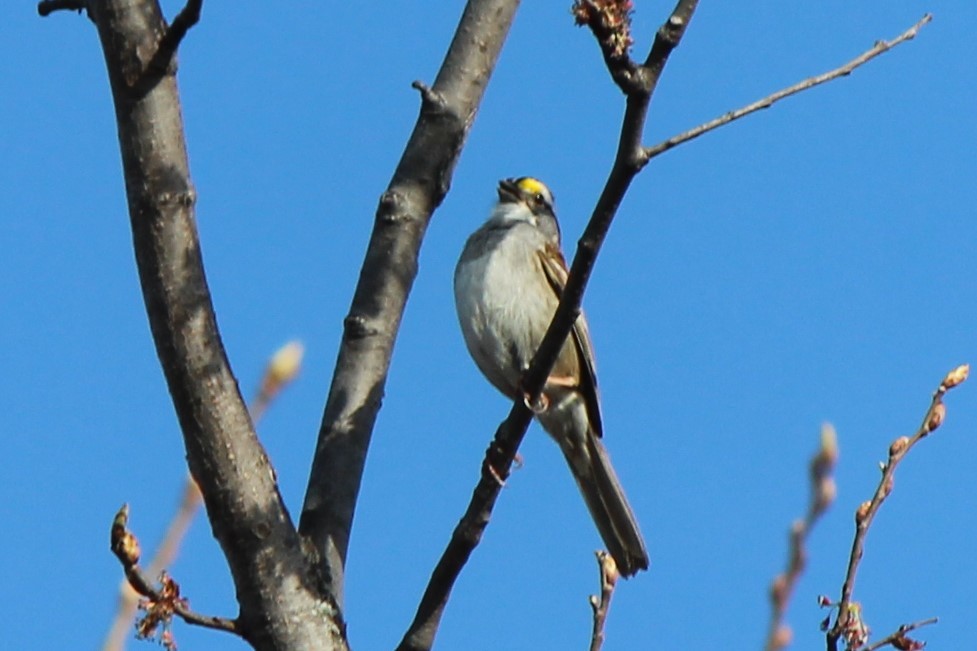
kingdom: Animalia
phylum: Chordata
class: Aves
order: Passeriformes
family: Passerellidae
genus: Zonotrichia
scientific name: Zonotrichia albicollis
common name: White-throated sparrow
